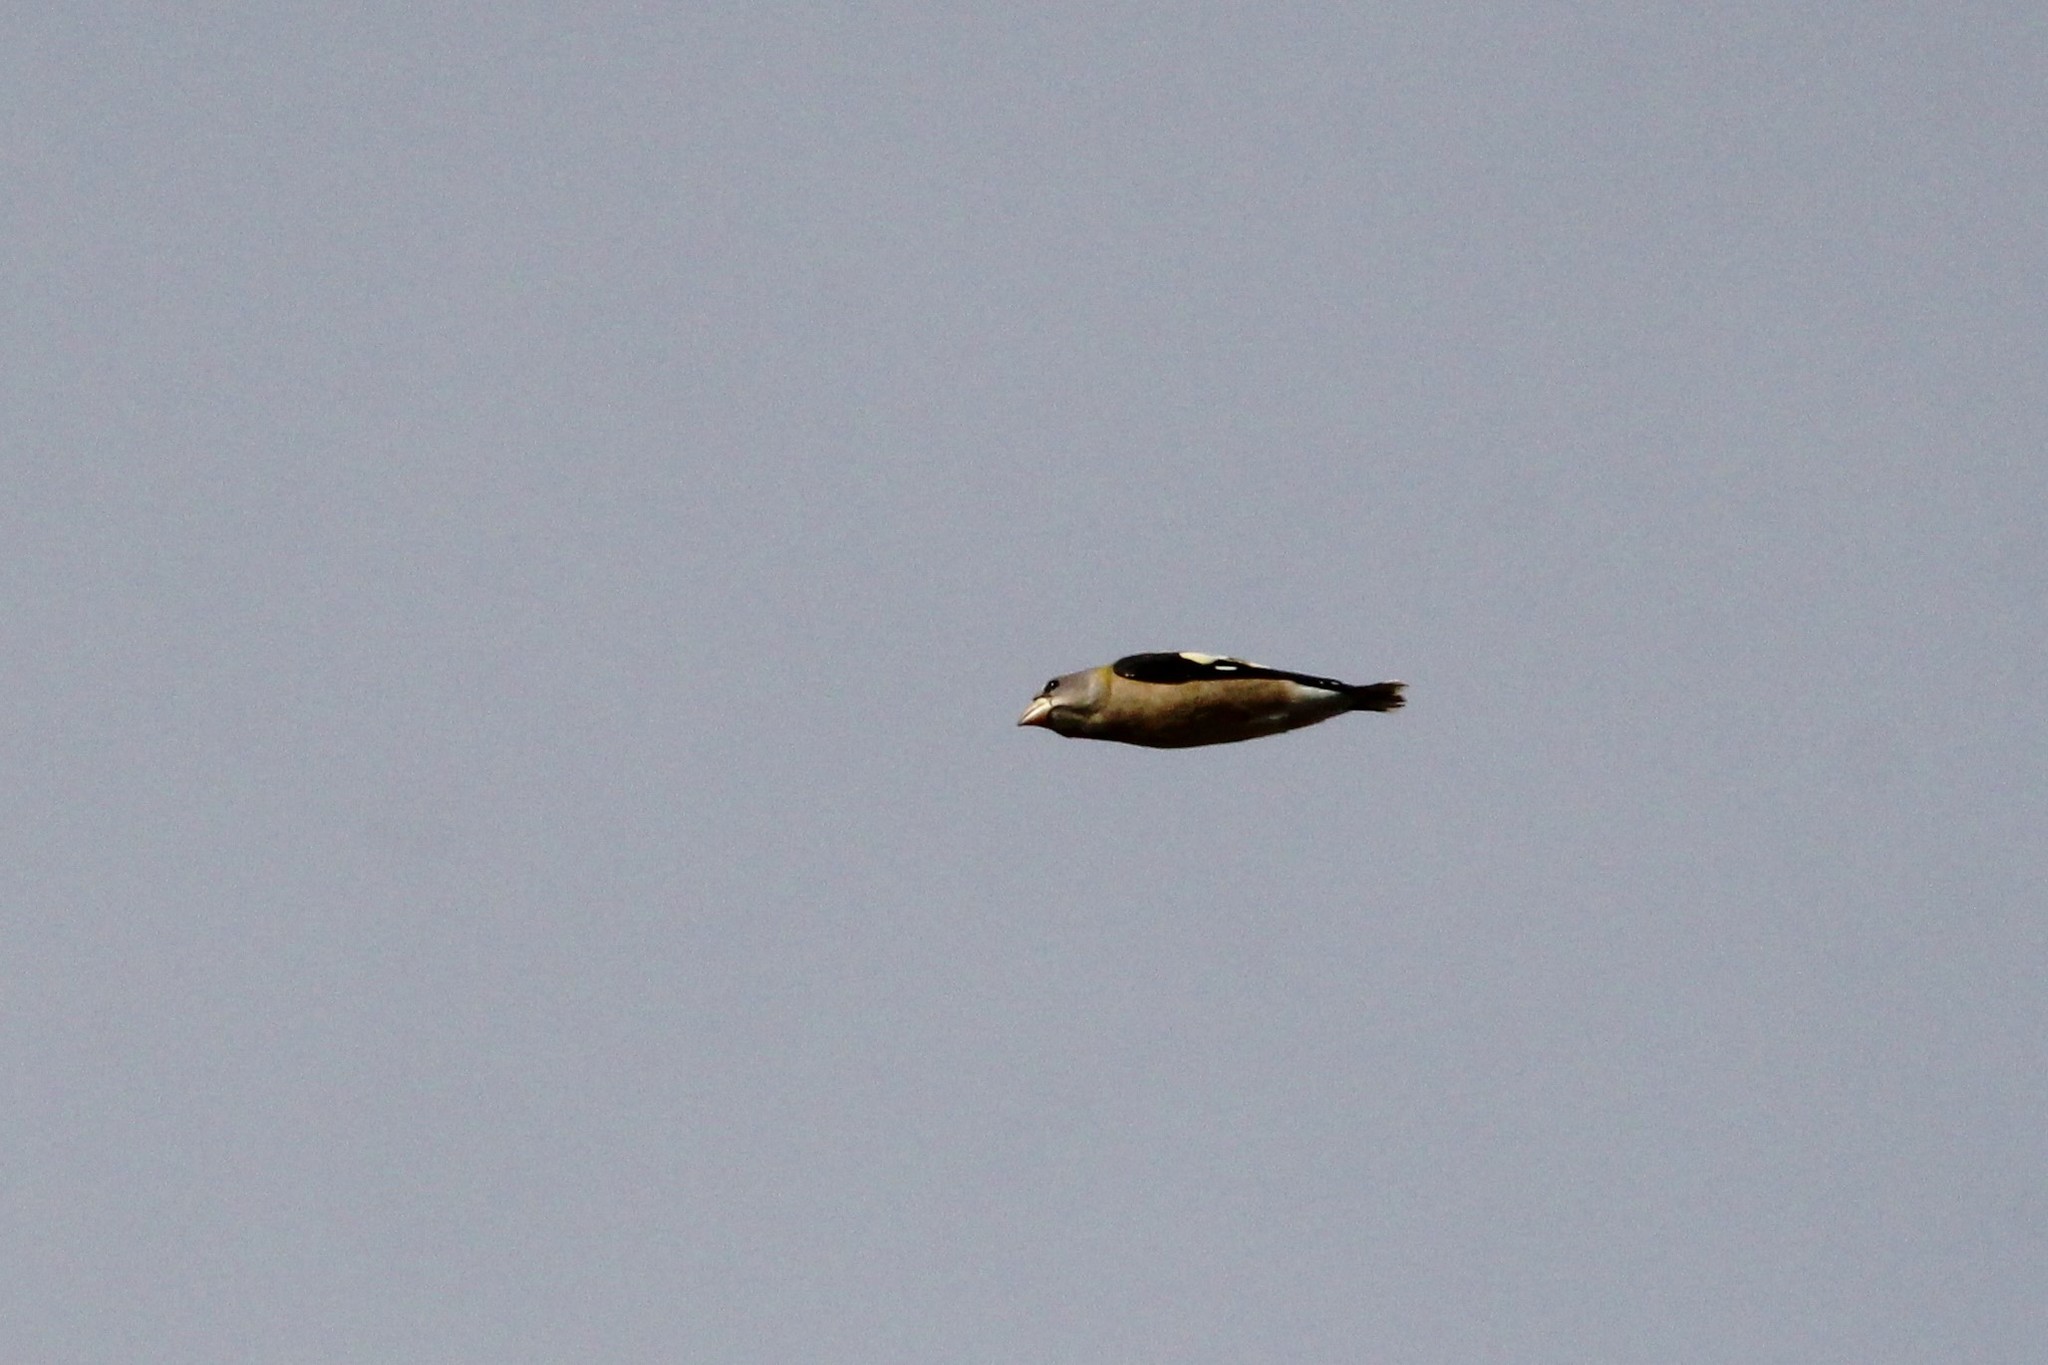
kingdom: Animalia
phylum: Chordata
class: Aves
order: Passeriformes
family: Fringillidae
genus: Hesperiphona
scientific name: Hesperiphona vespertina
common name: Evening grosbeak
